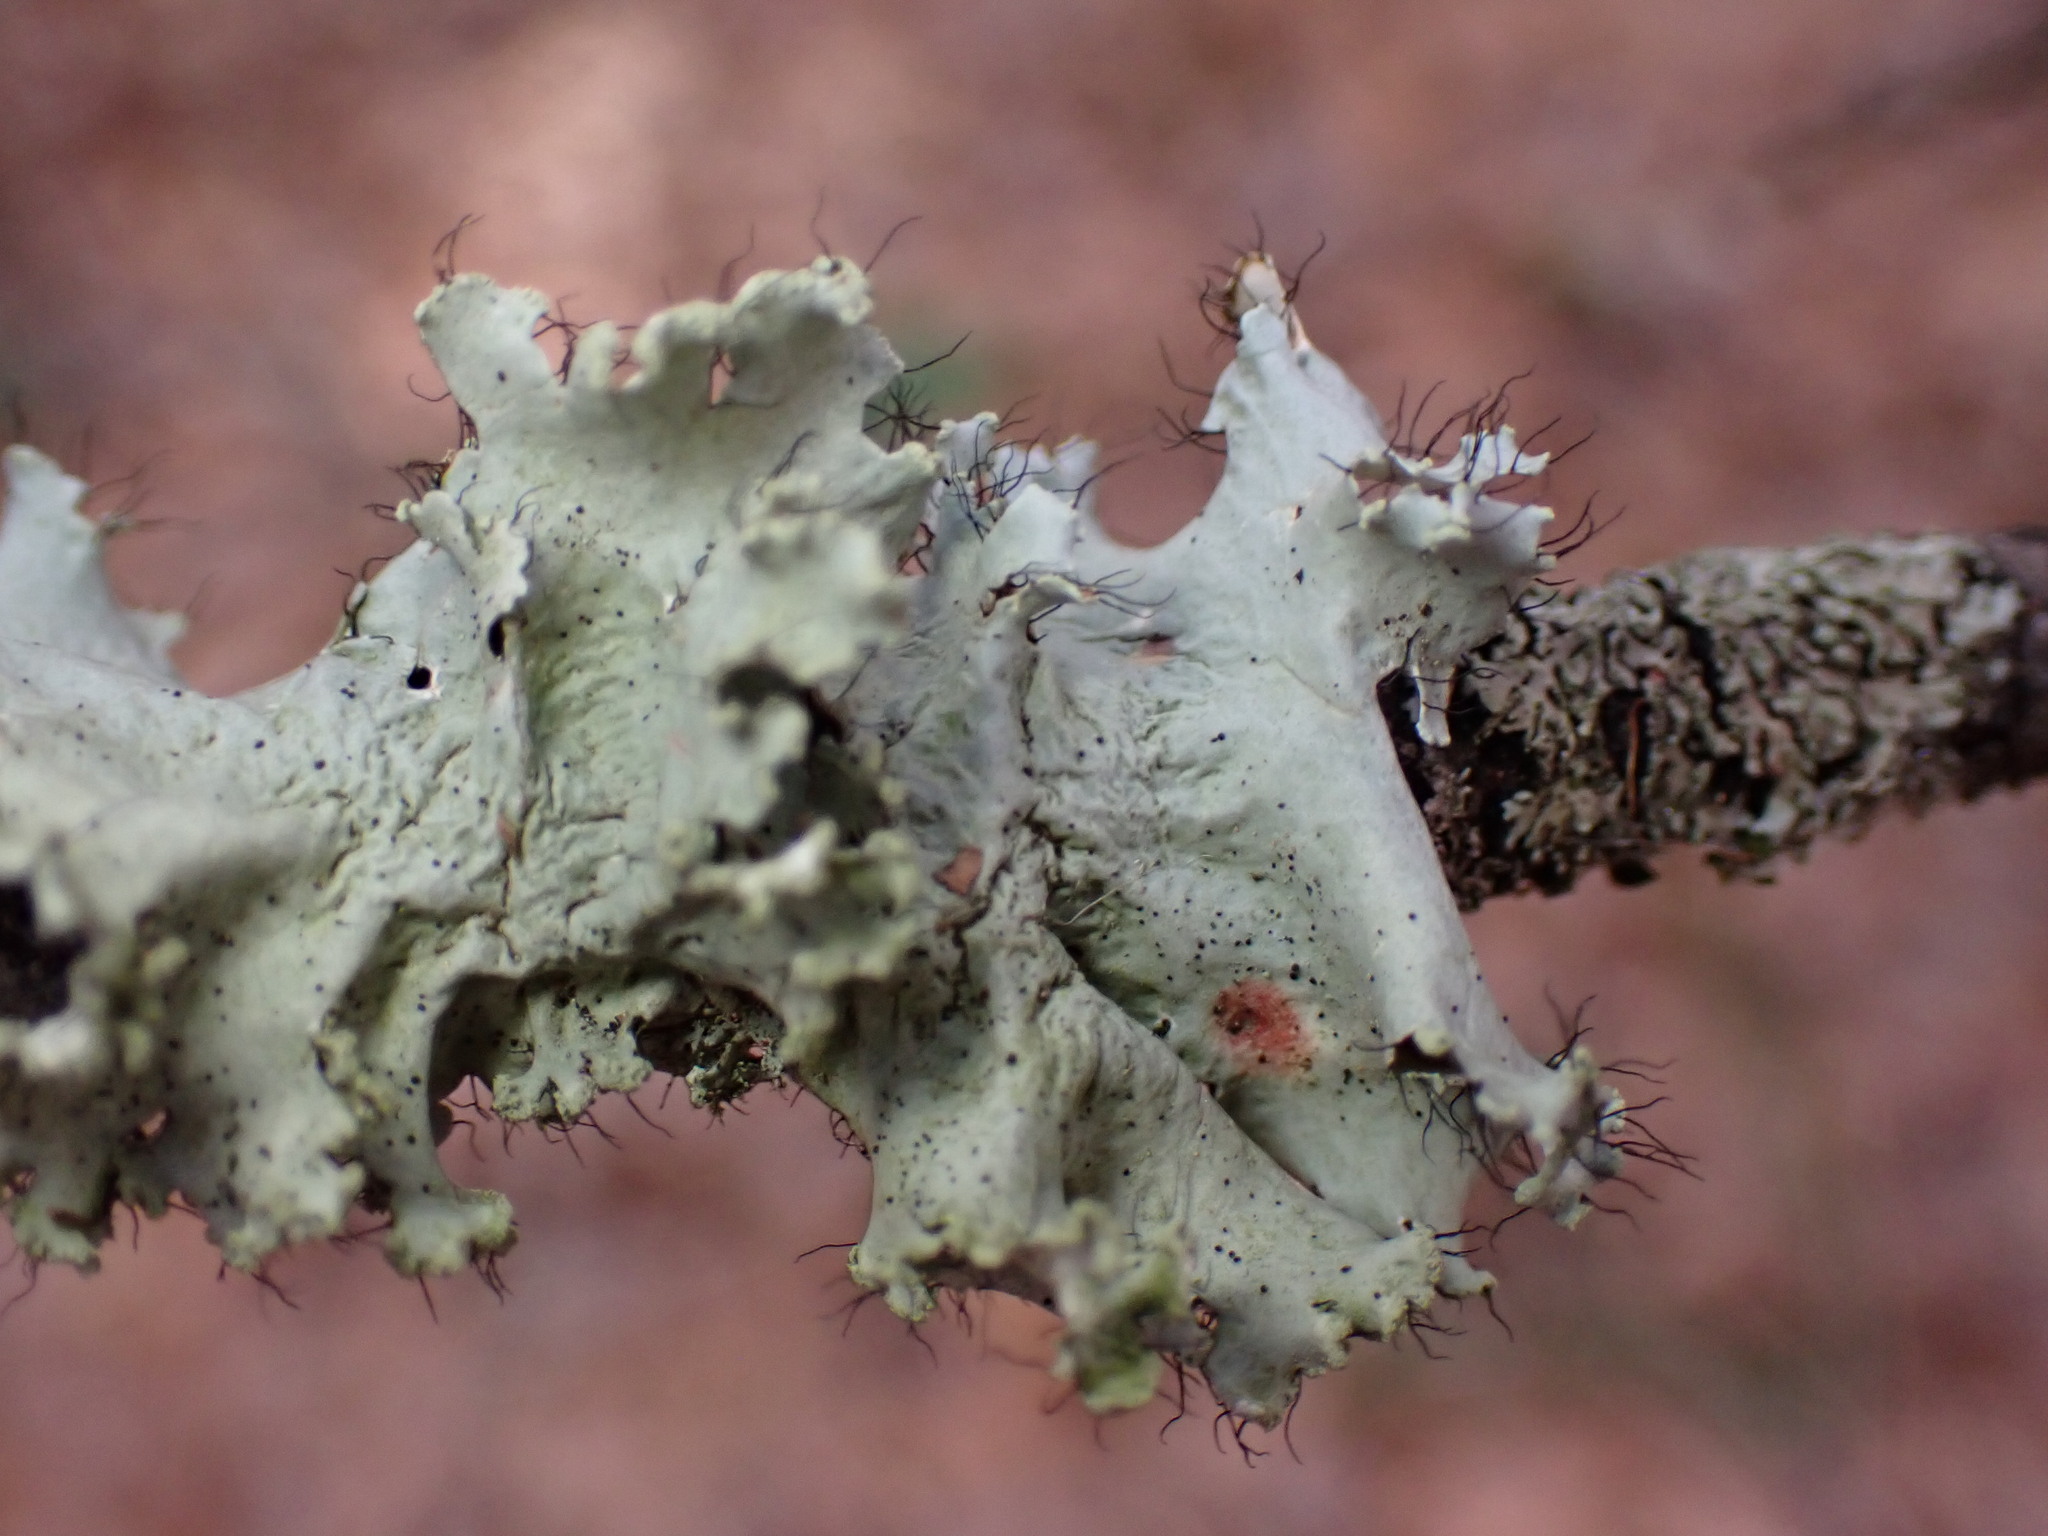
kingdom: Fungi
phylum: Ascomycota
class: Lecanoromycetes
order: Lecanorales
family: Parmeliaceae
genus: Parmotrema
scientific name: Parmotrema hypotropum
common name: Powdered ruffle lichen
